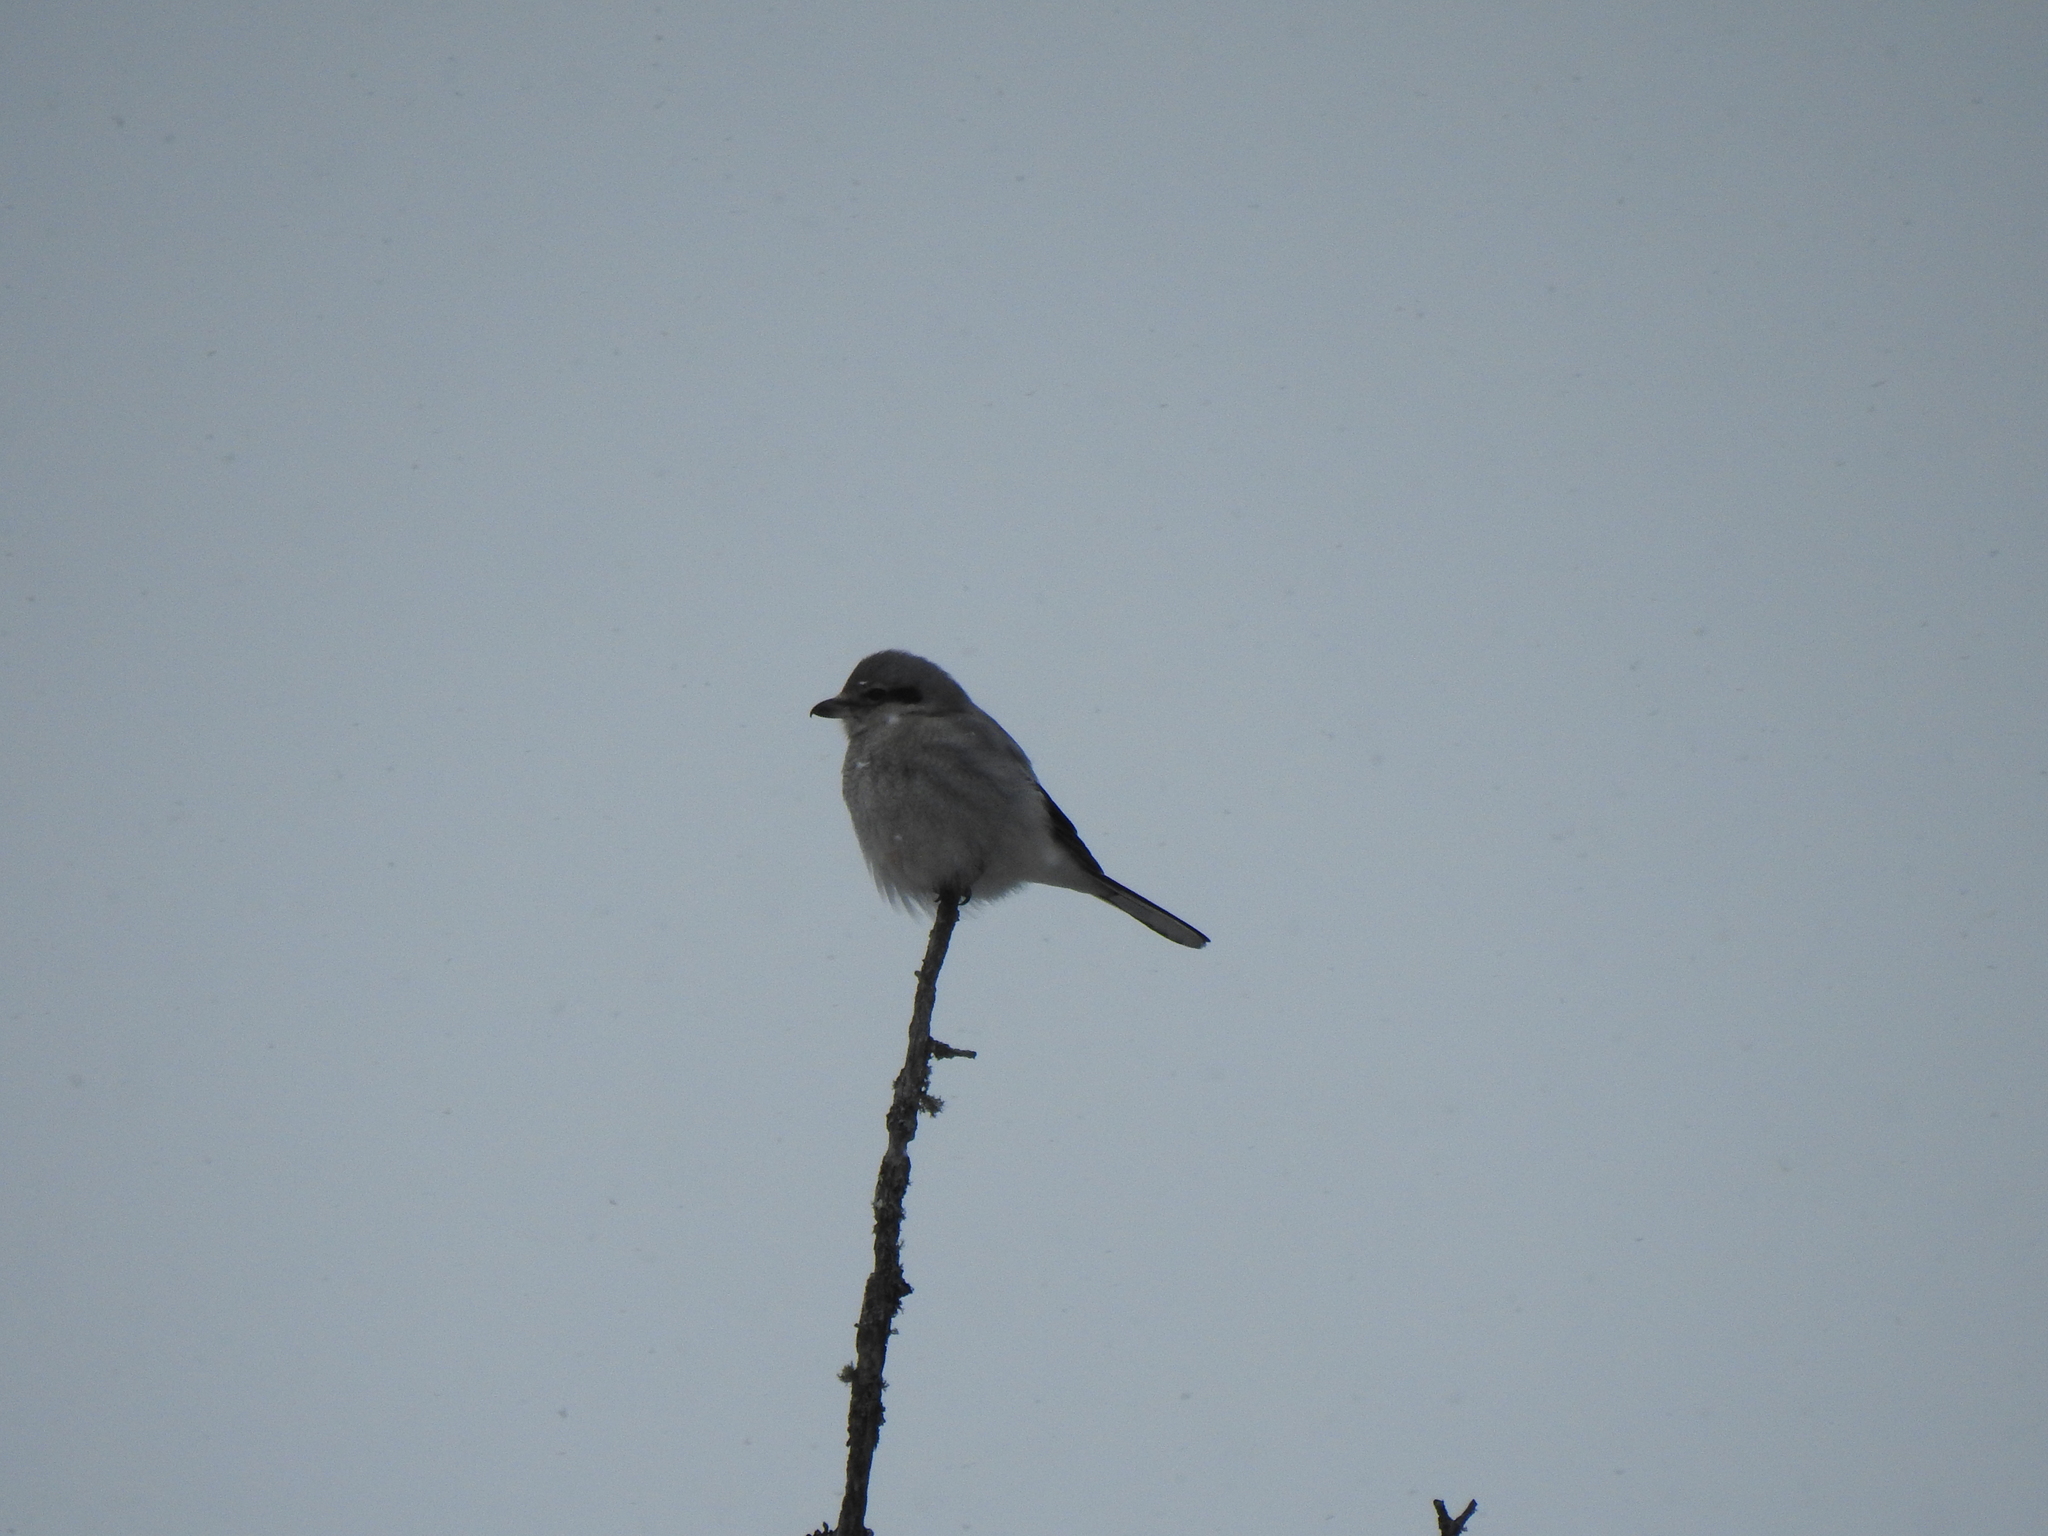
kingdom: Animalia
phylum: Chordata
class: Aves
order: Passeriformes
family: Laniidae
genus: Lanius
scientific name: Lanius borealis
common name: Northern shrike
